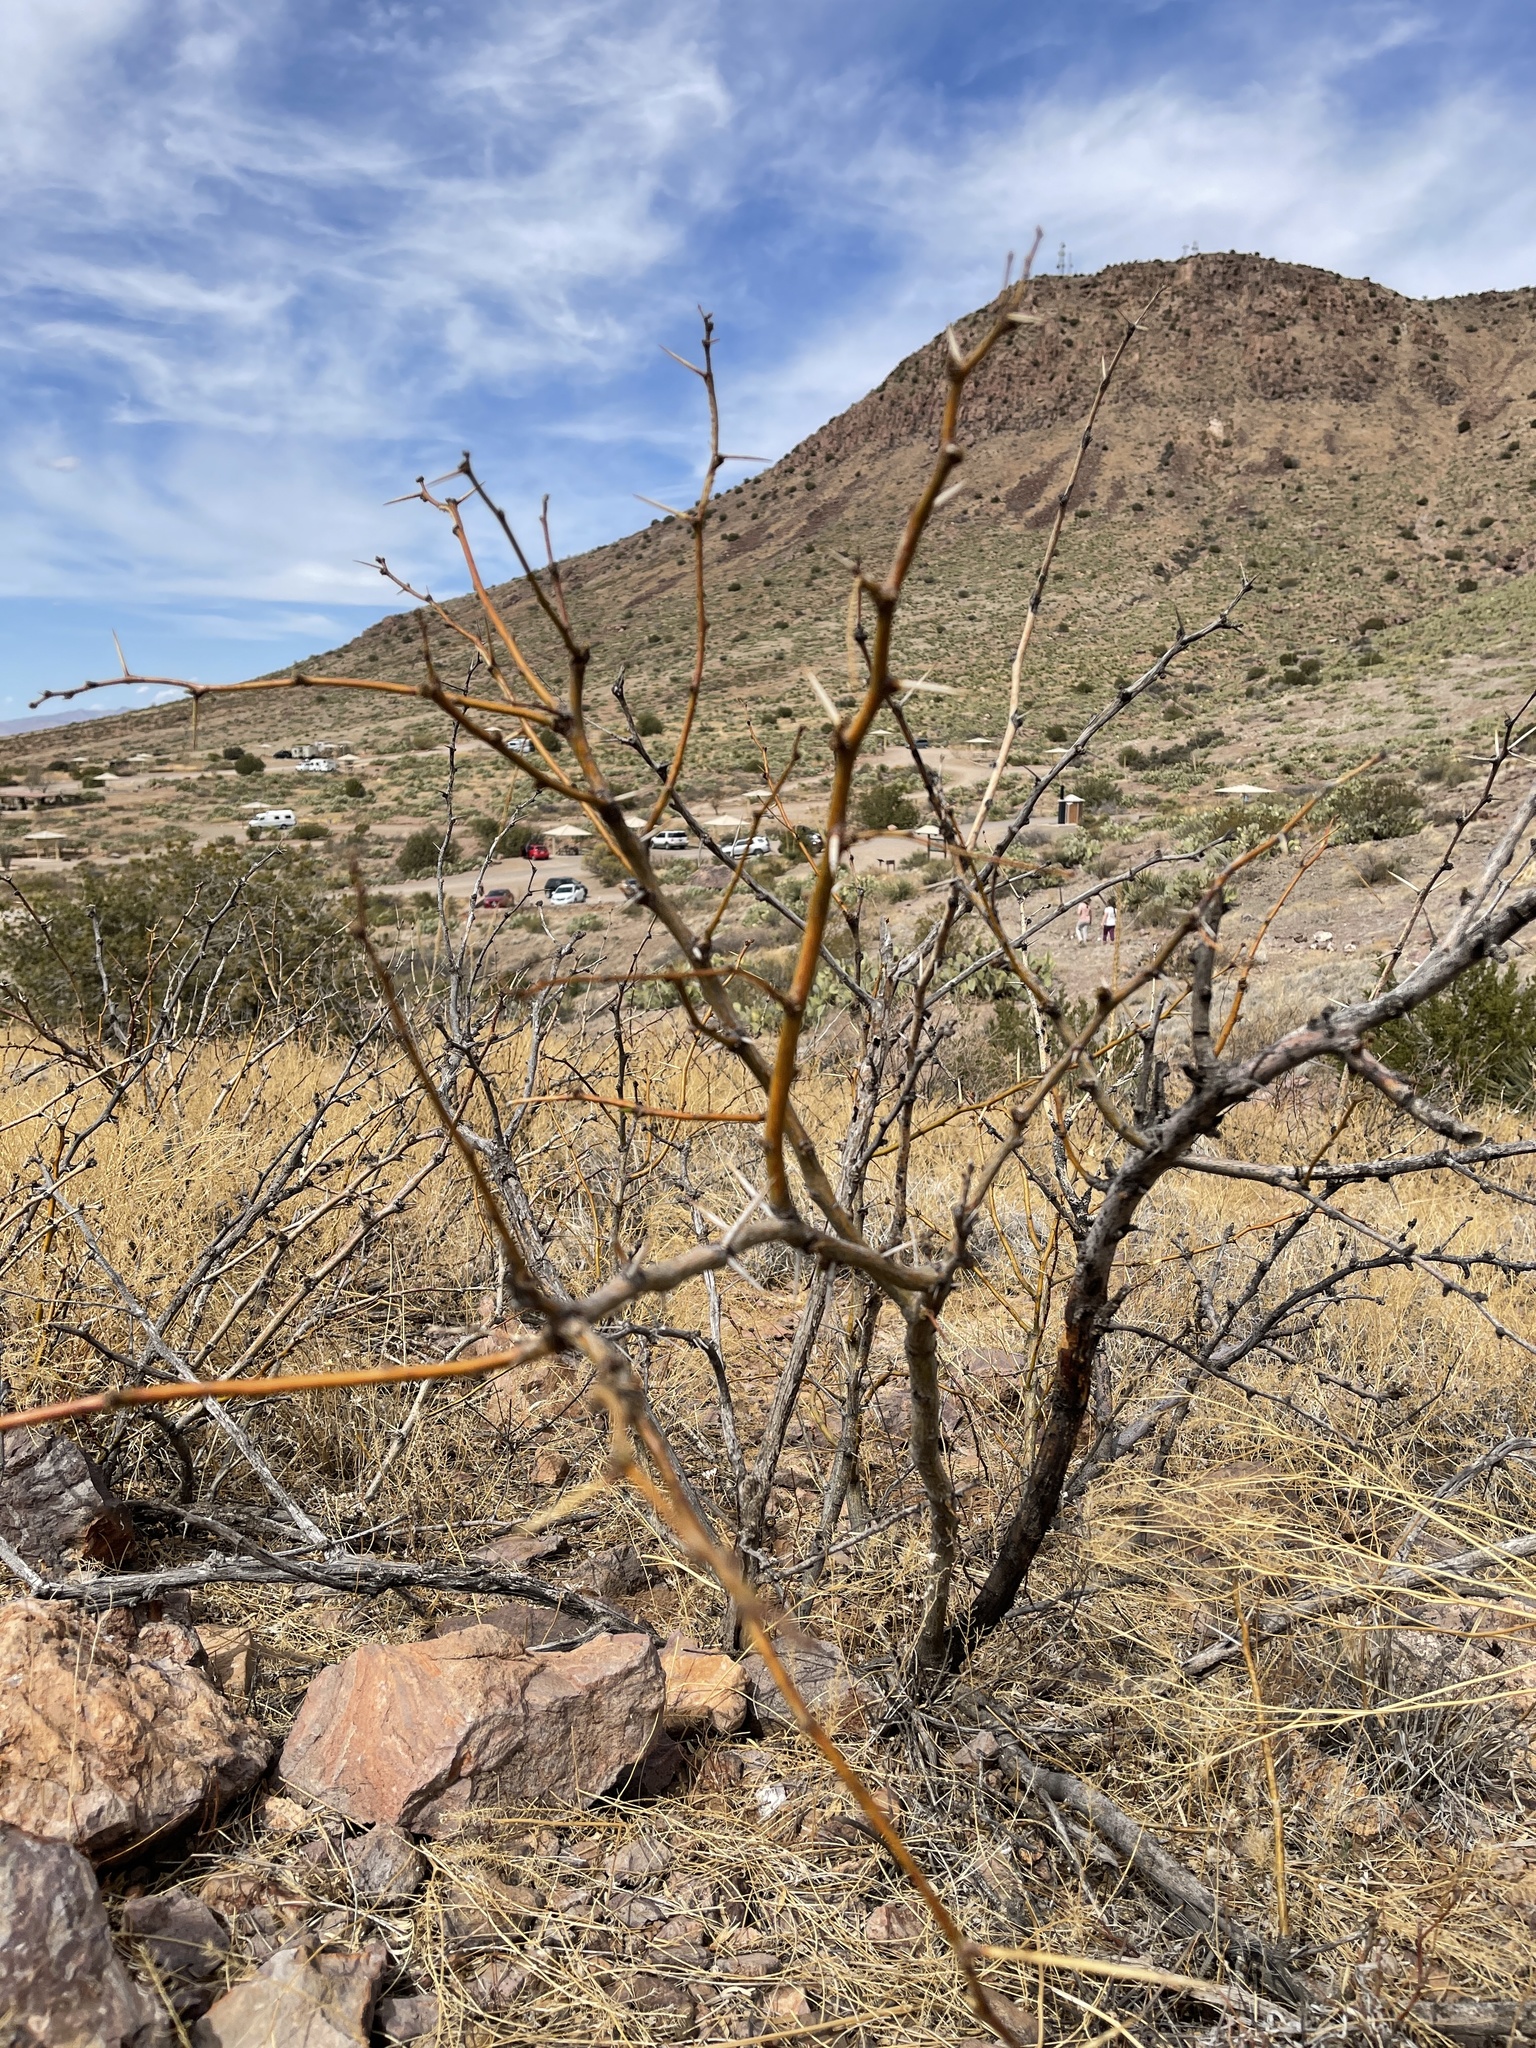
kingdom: Plantae
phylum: Tracheophyta
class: Magnoliopsida
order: Fabales
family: Fabaceae
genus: Prosopis
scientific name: Prosopis glandulosa
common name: Honey mesquite
